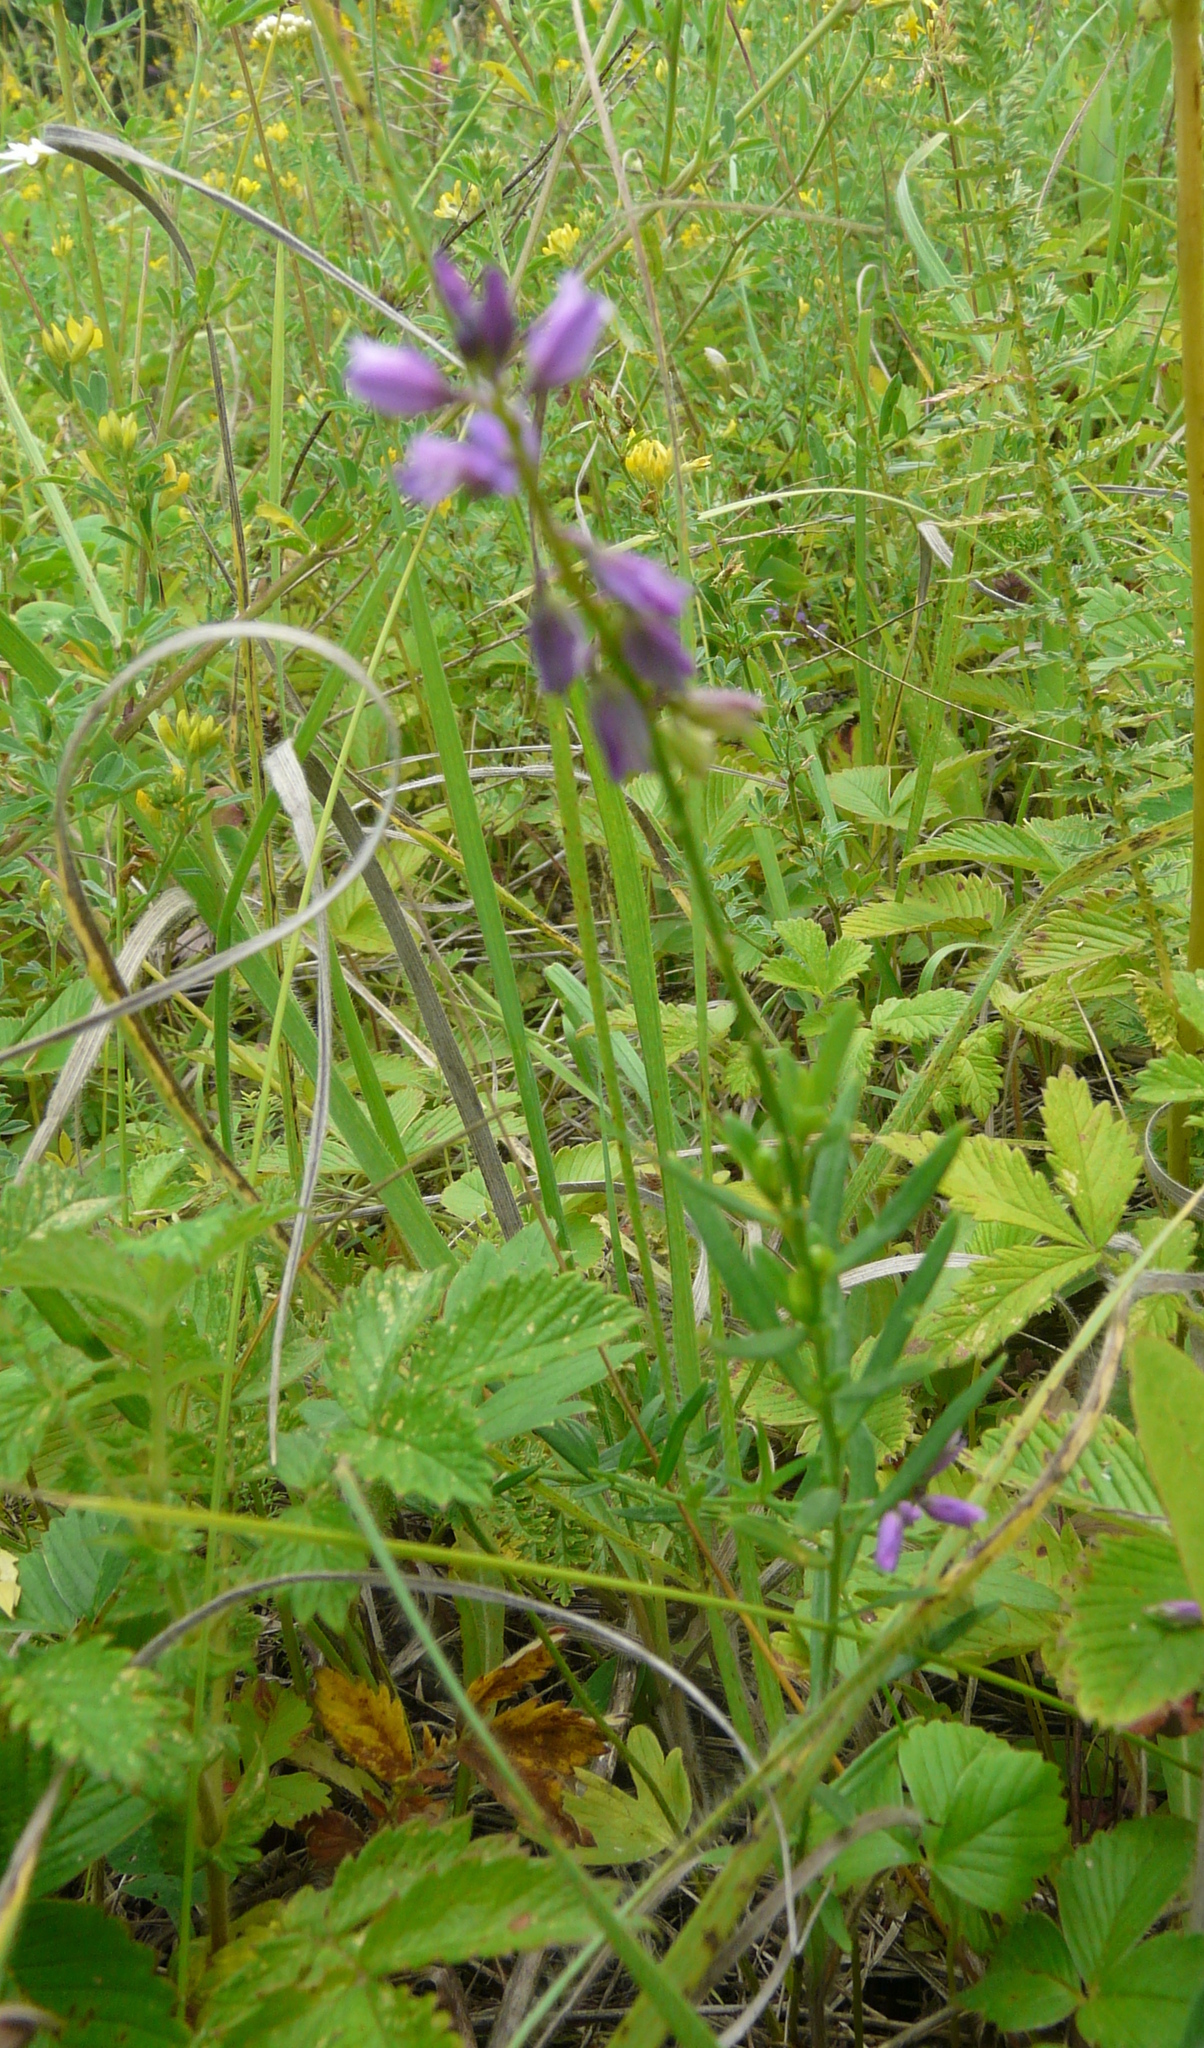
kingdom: Plantae
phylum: Tracheophyta
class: Magnoliopsida
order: Fabales
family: Polygalaceae
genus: Polygala
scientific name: Polygala comosa
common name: Tufted milkwort
